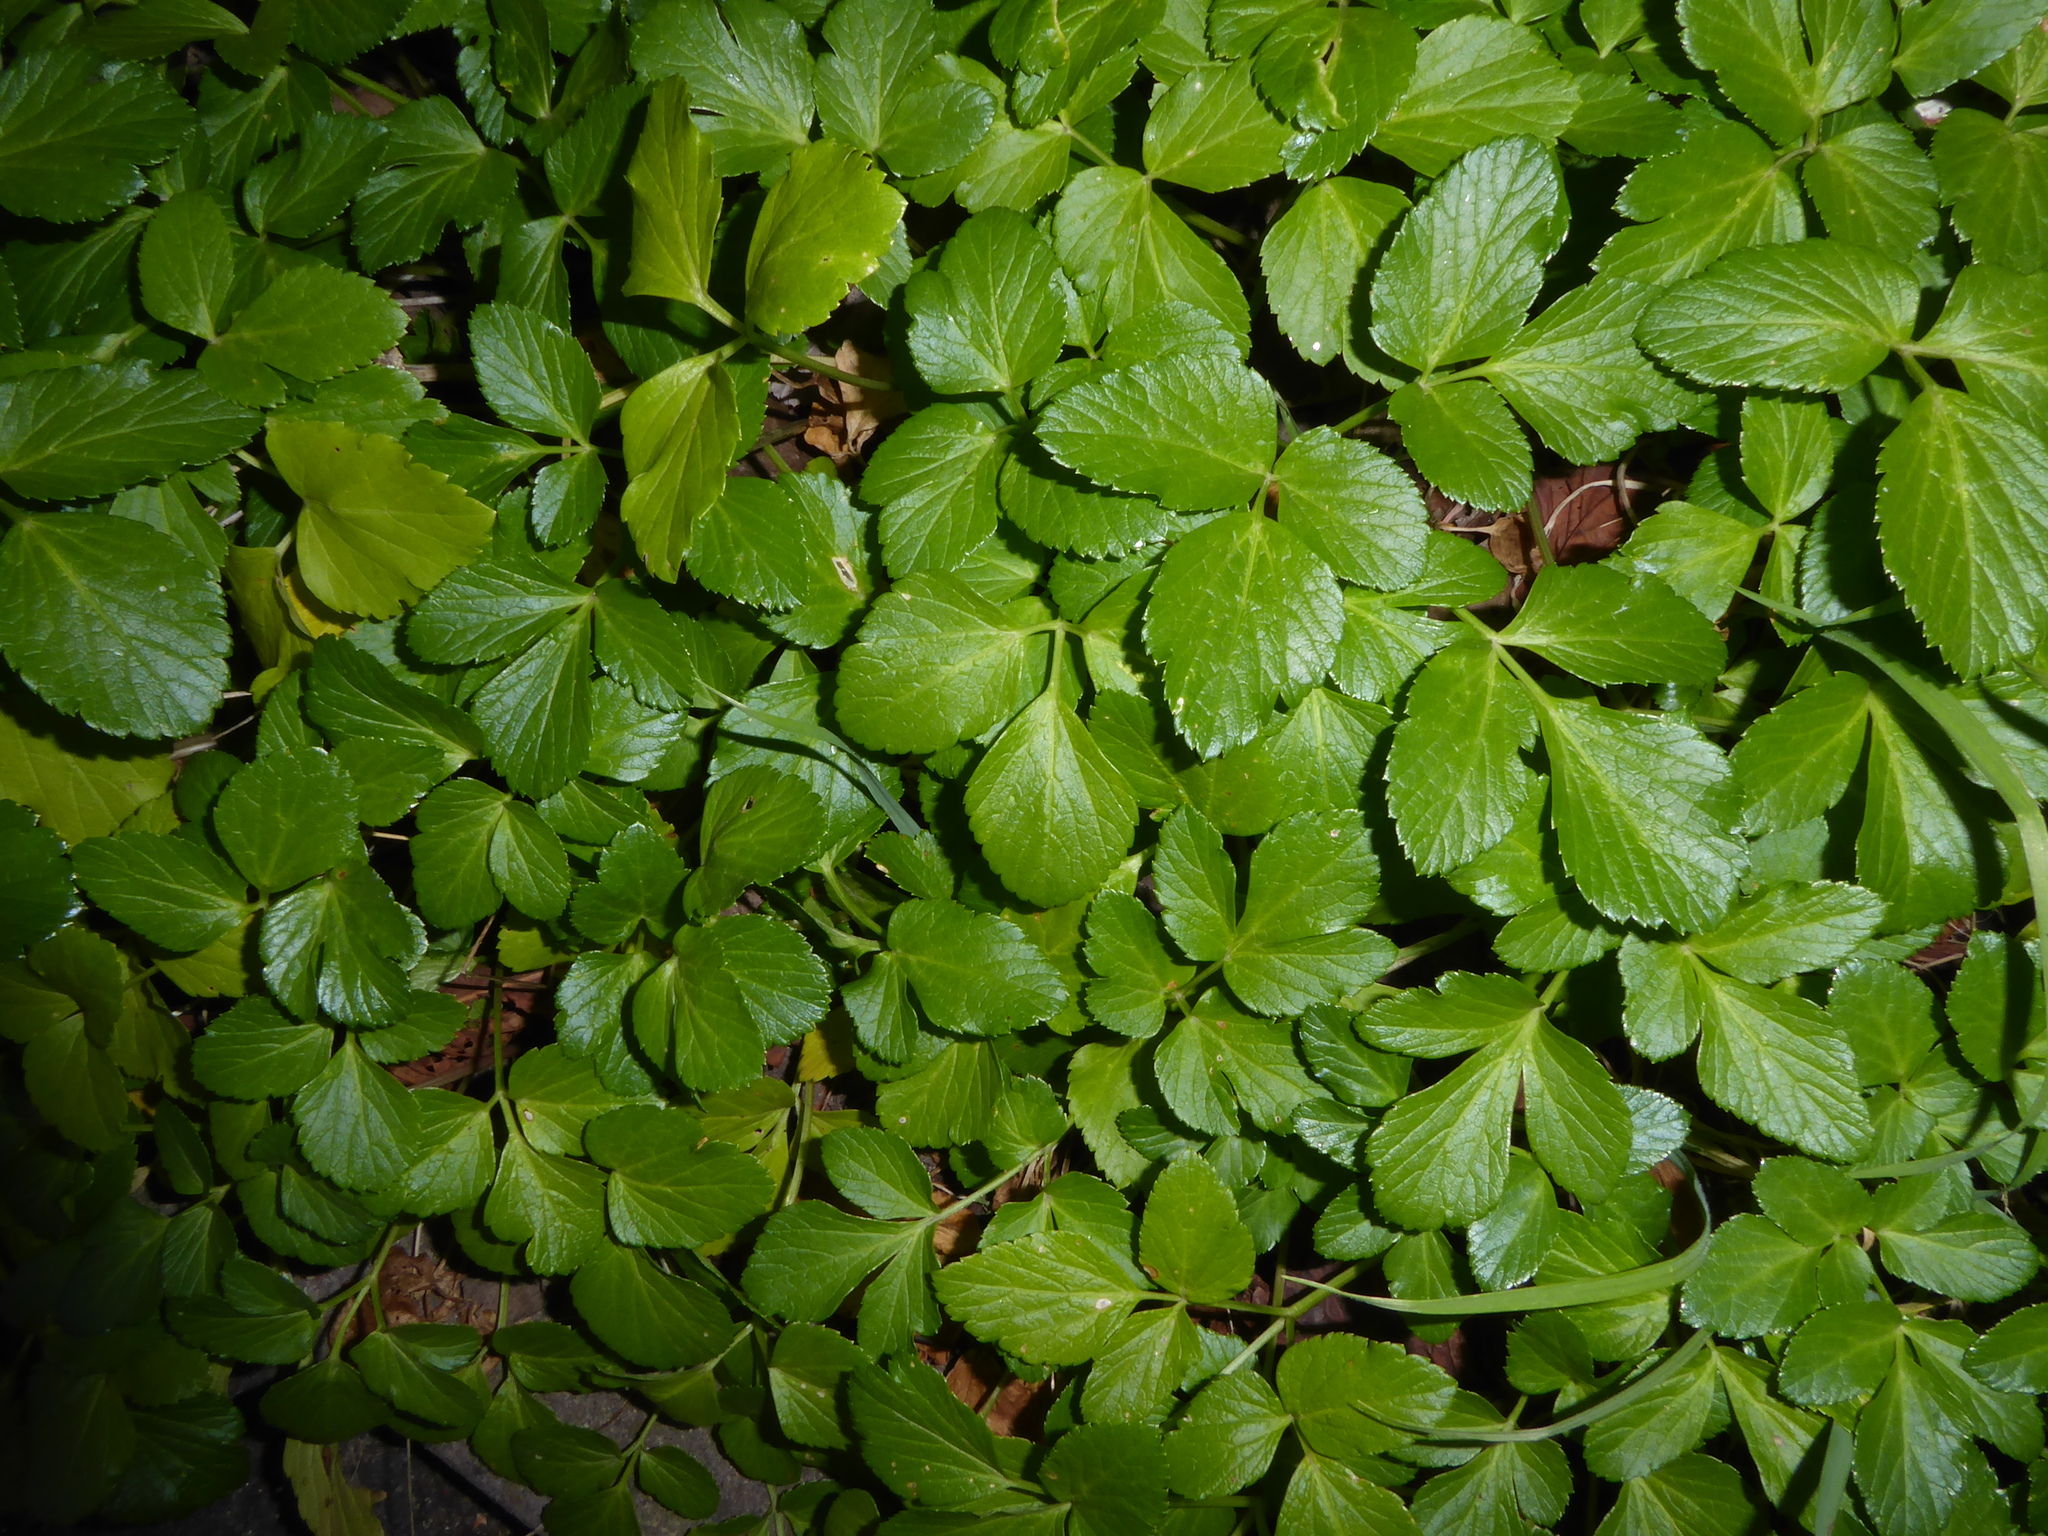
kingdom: Plantae
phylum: Tracheophyta
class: Magnoliopsida
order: Apiales
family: Apiaceae
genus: Smyrnium
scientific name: Smyrnium olusatrum
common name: Alexanders
